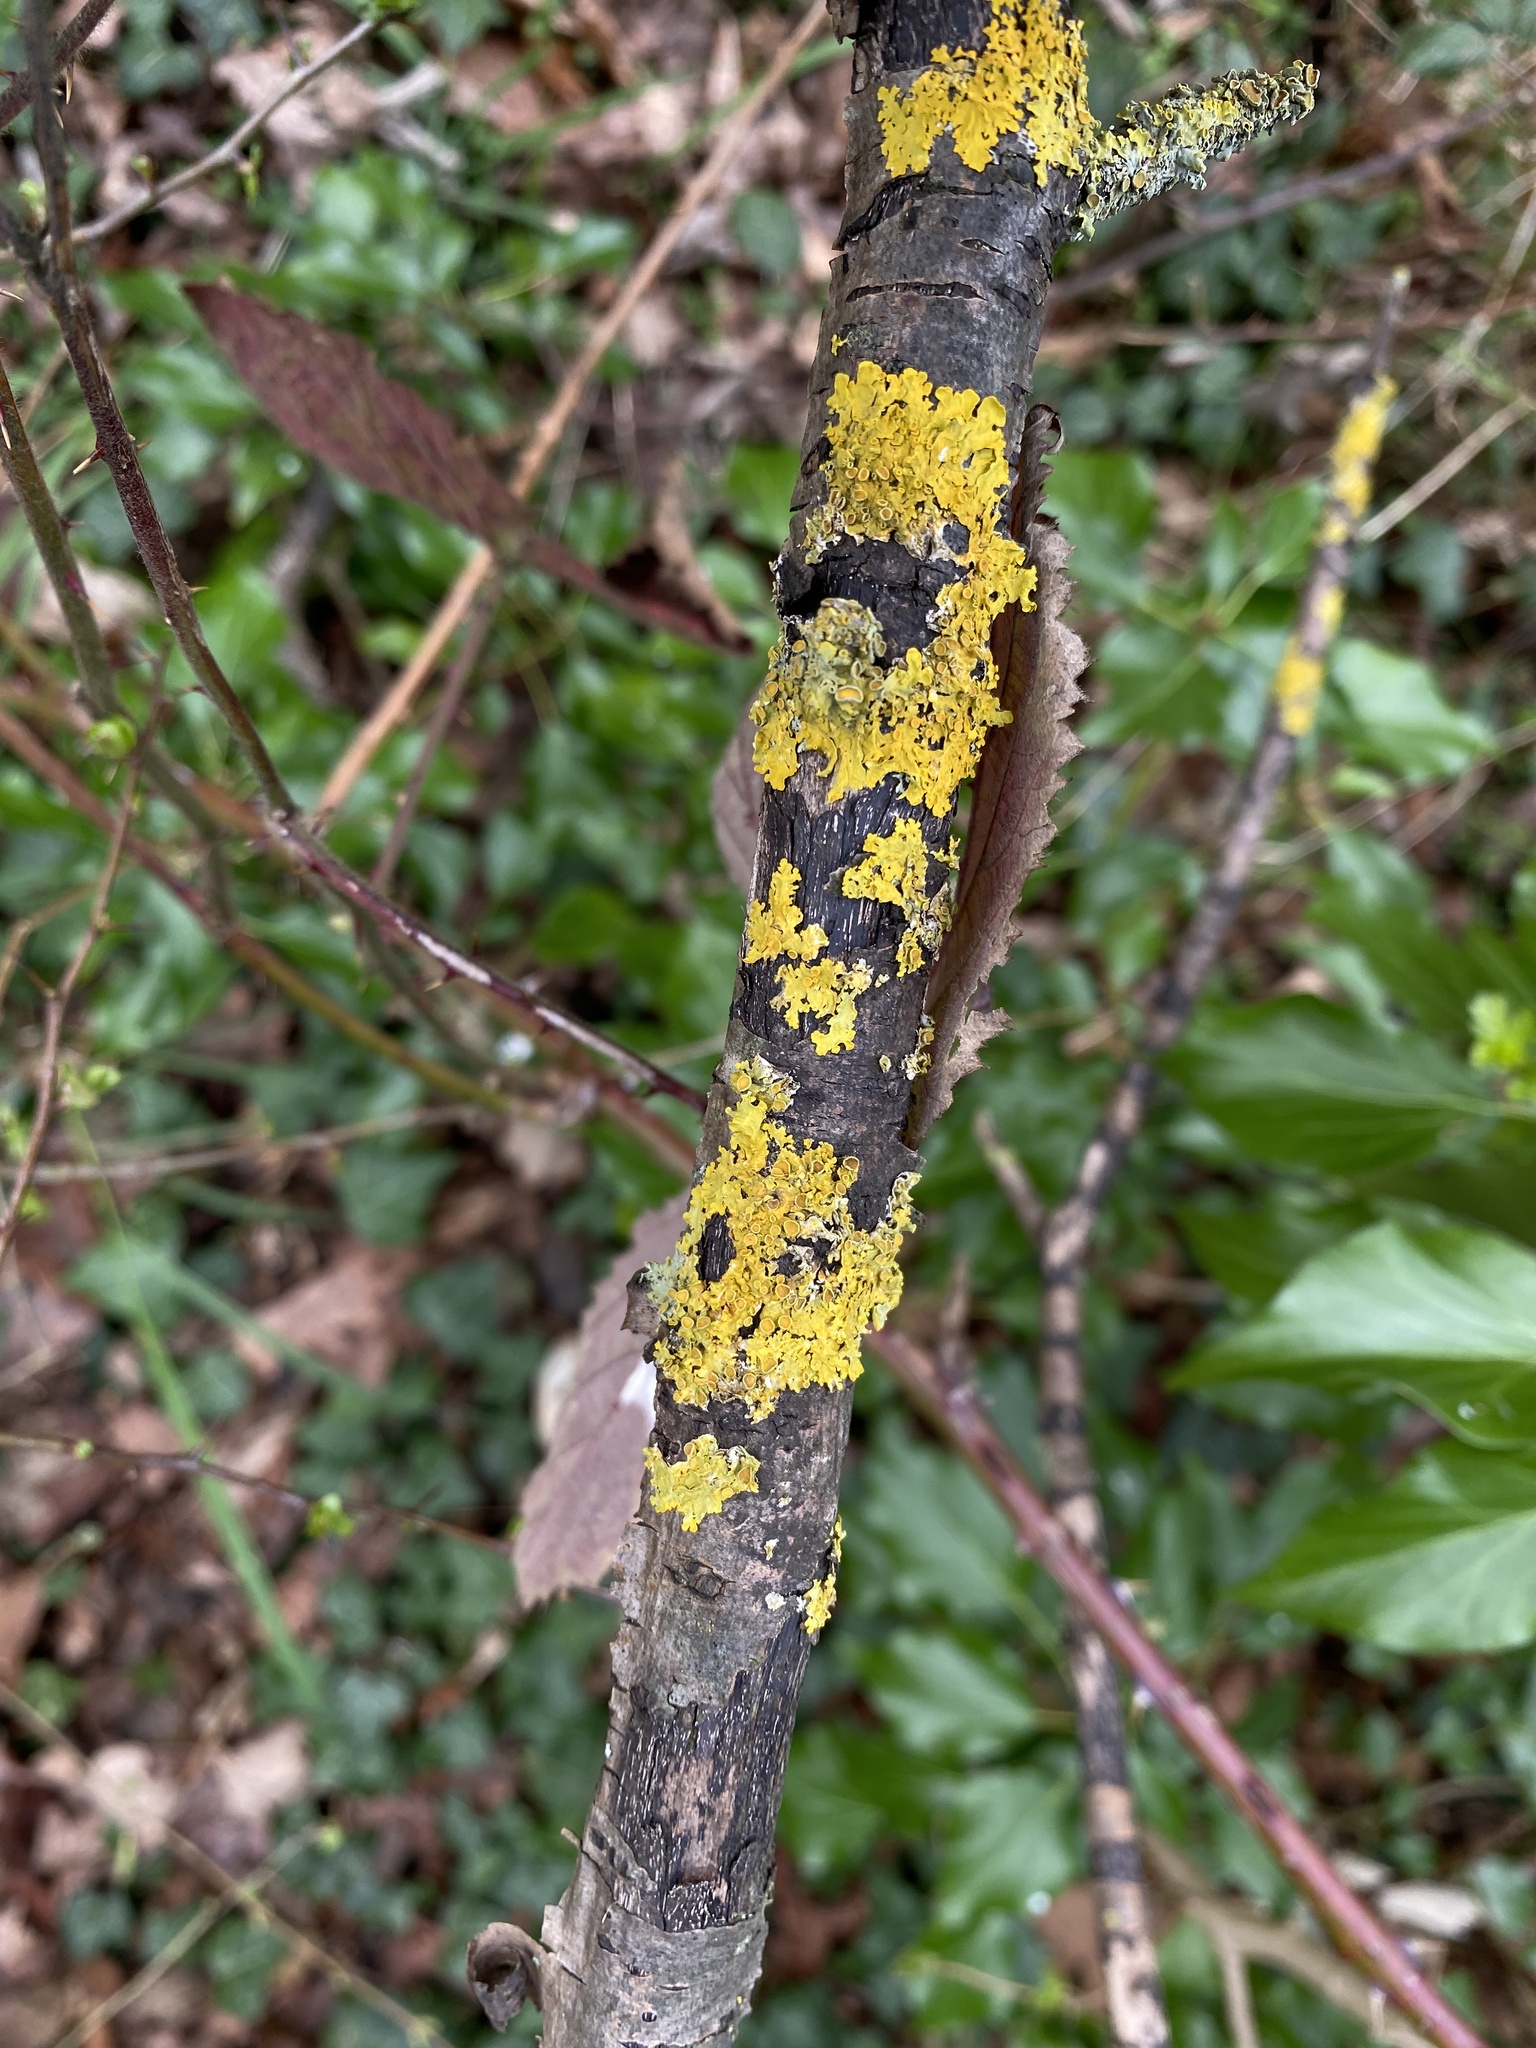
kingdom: Fungi
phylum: Ascomycota
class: Lecanoromycetes
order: Teloschistales
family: Teloschistaceae
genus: Xanthoria
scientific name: Xanthoria parietina
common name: Common orange lichen
